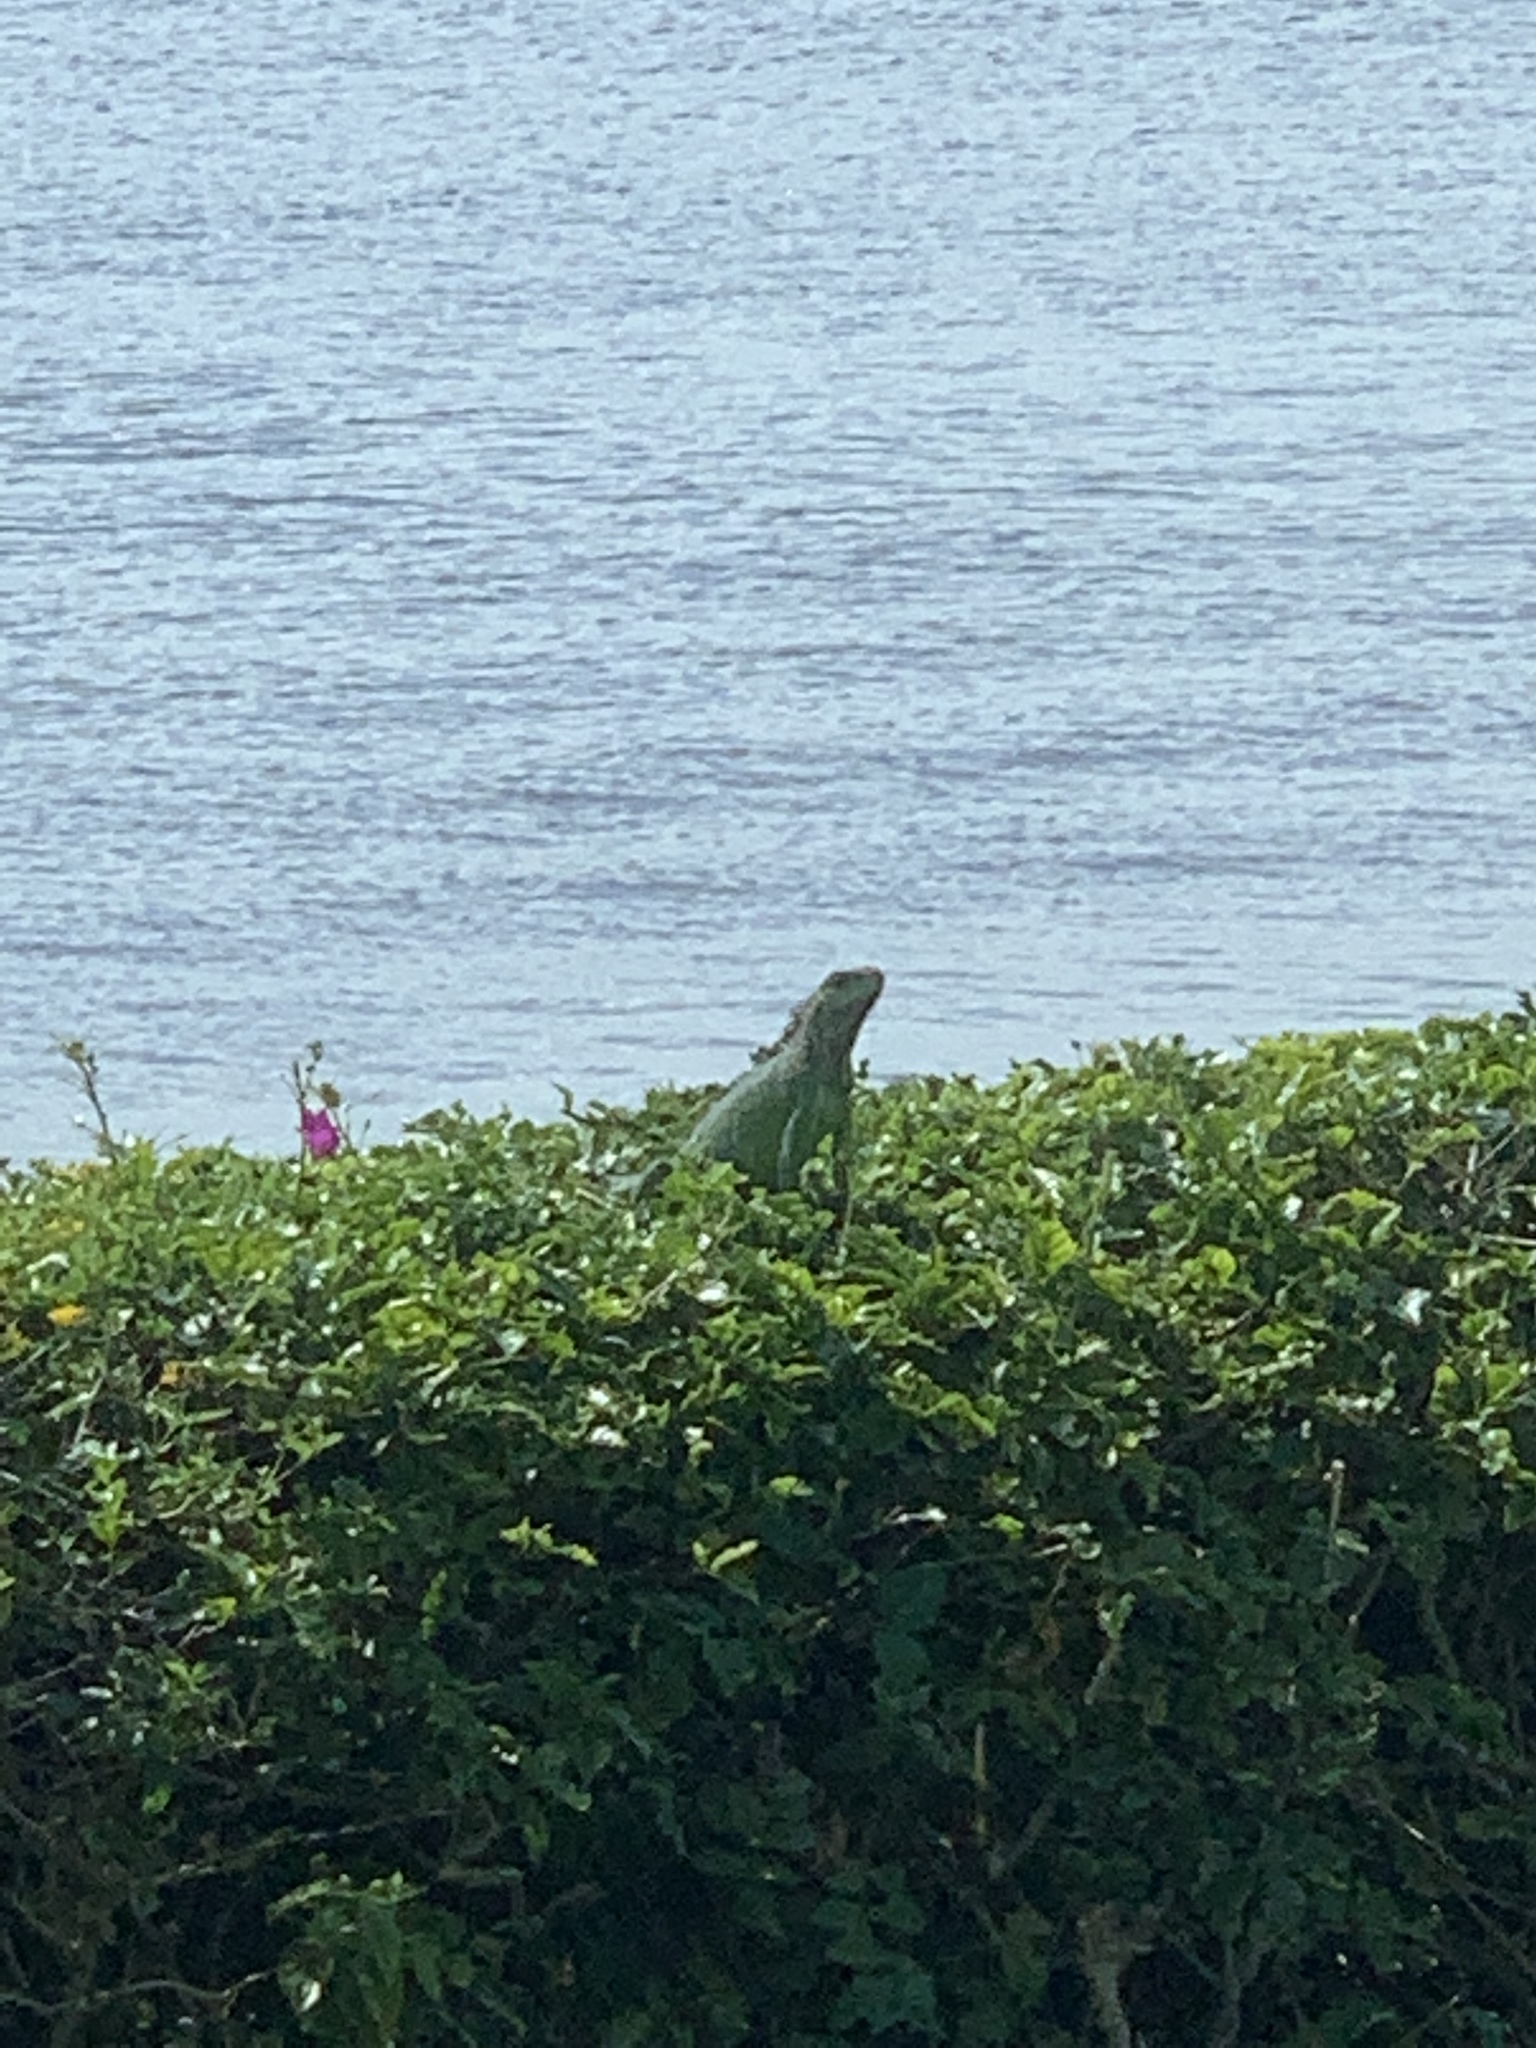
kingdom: Animalia
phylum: Chordata
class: Squamata
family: Iguanidae
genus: Iguana
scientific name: Iguana iguana
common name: Green iguana
